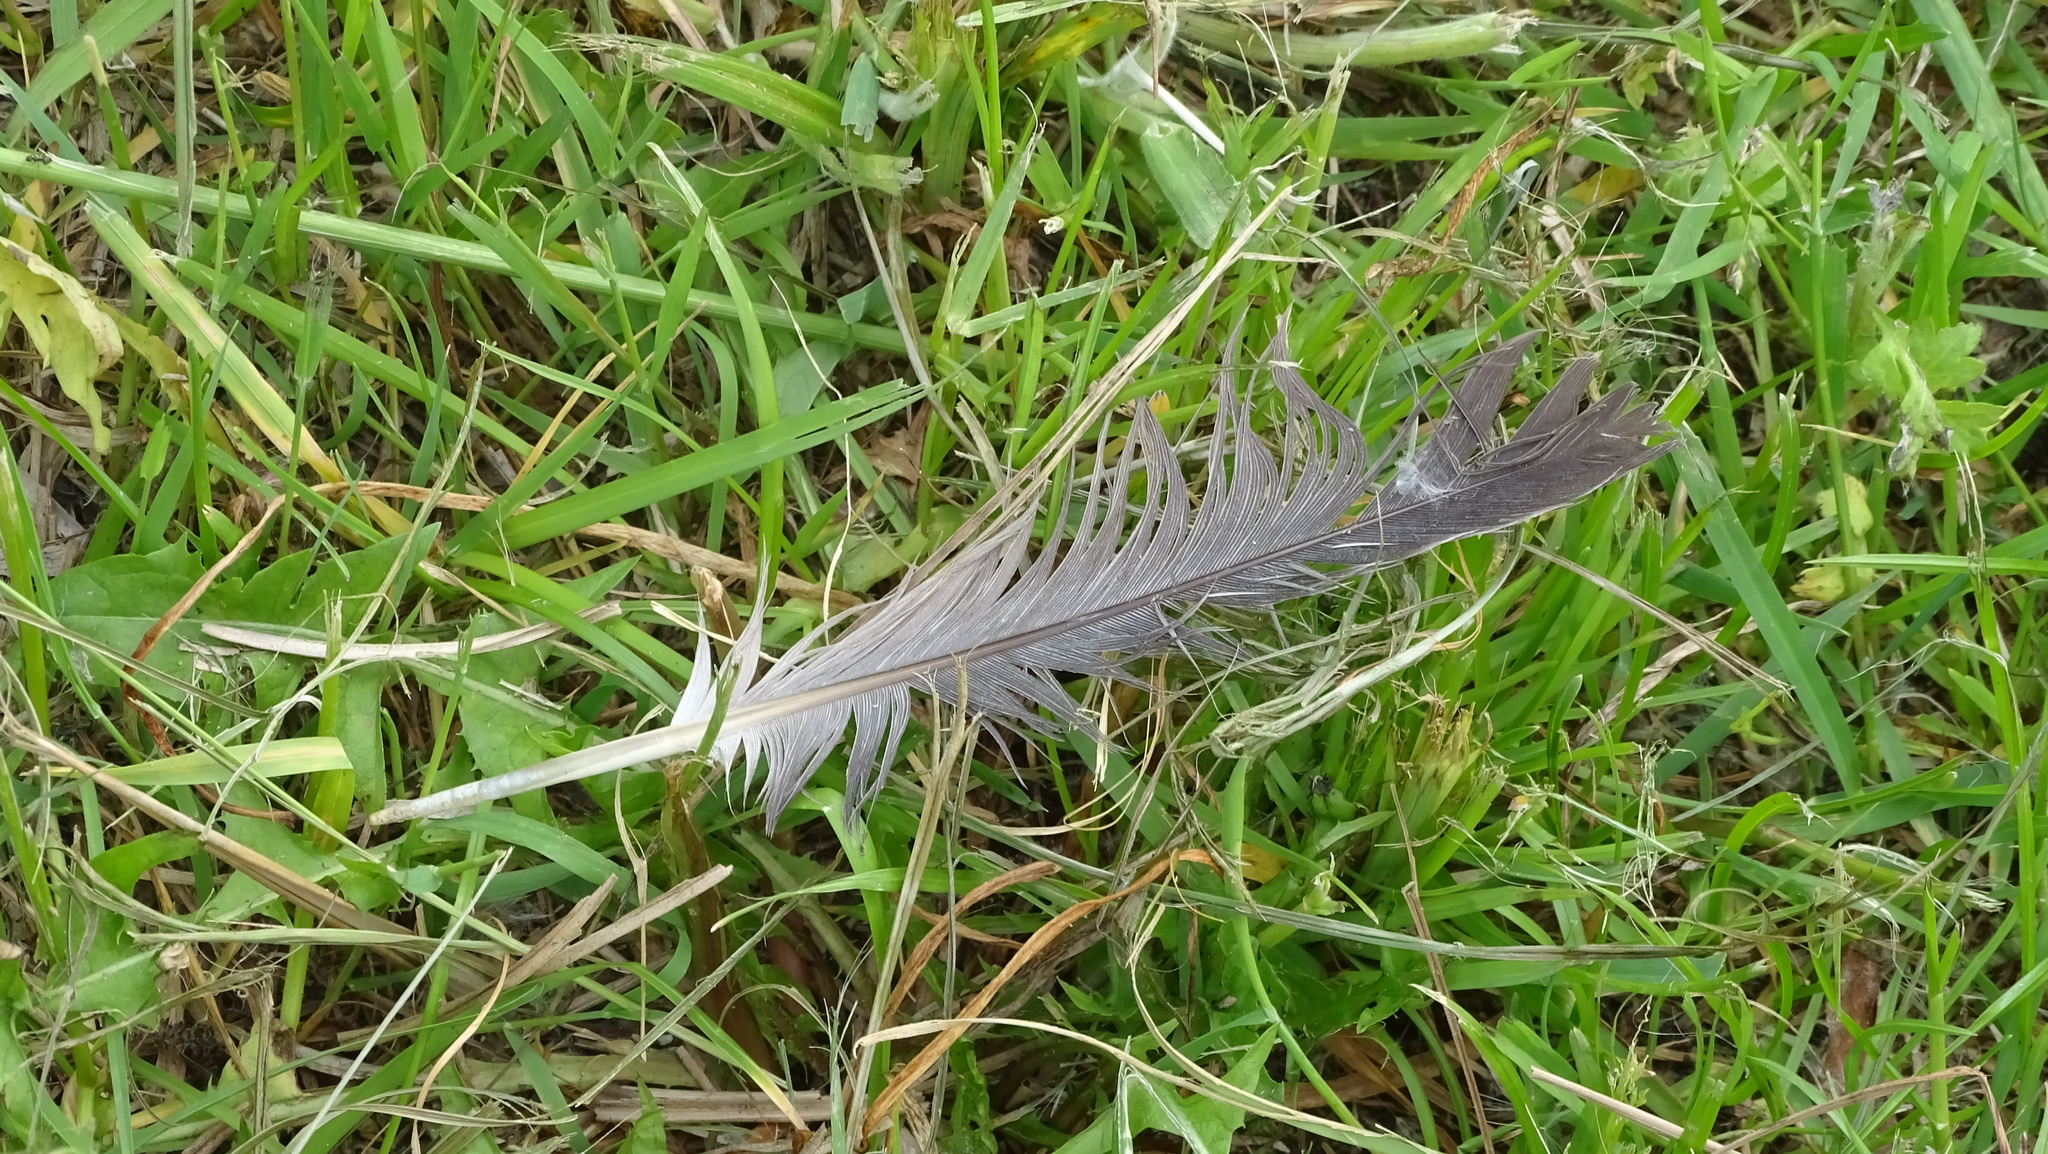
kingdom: Animalia
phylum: Chordata
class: Aves
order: Columbiformes
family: Columbidae
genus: Columba
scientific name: Columba palumbus
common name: Common wood pigeon
